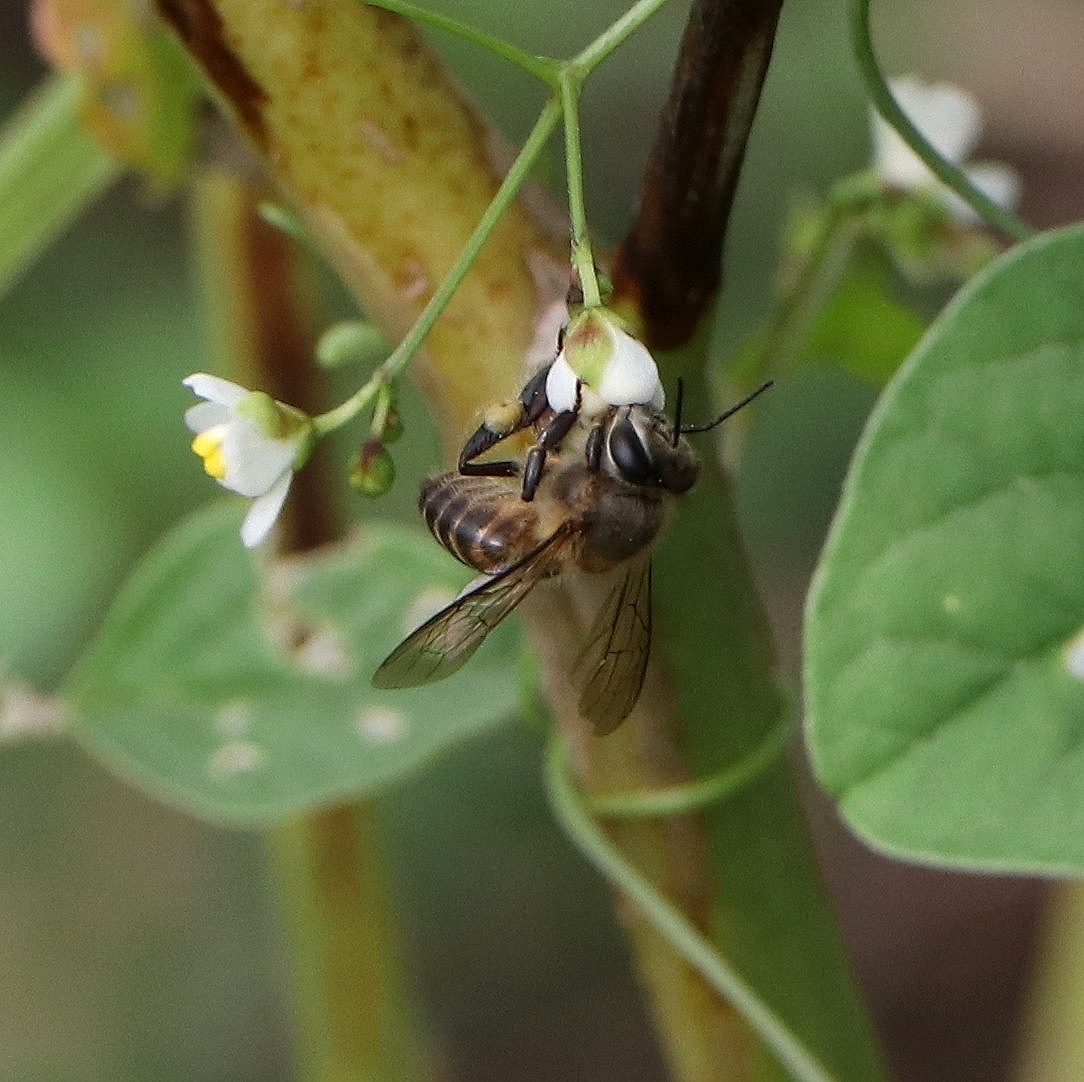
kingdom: Animalia
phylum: Arthropoda
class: Insecta
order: Hymenoptera
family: Apidae
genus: Apis
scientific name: Apis cerana
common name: Honey bee
